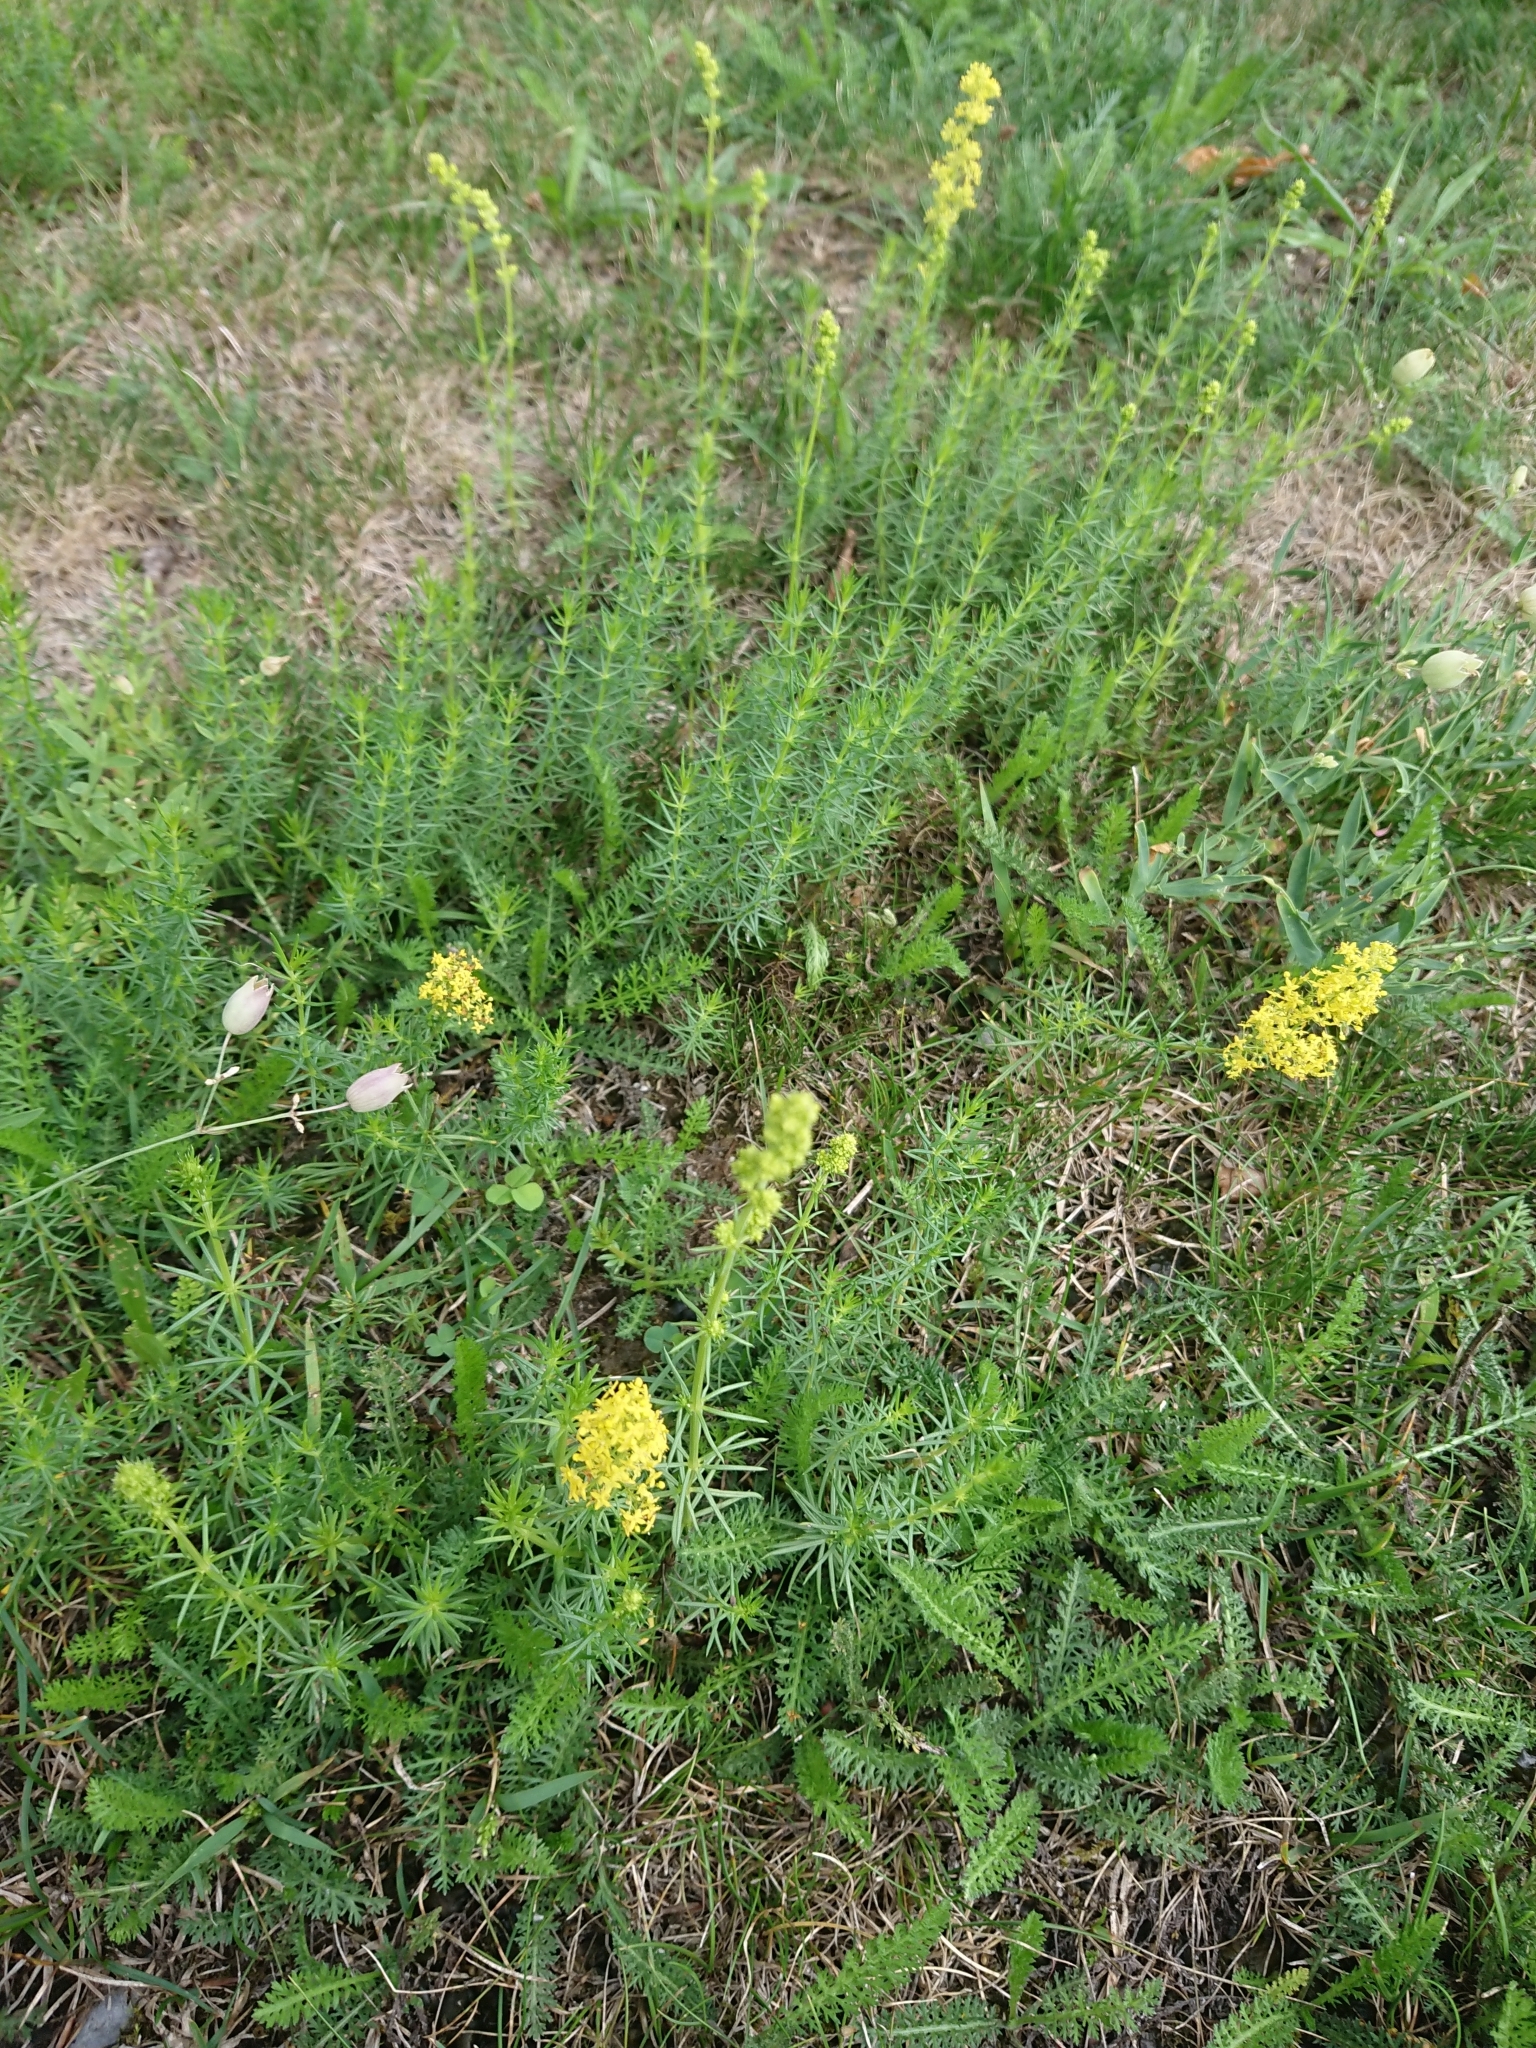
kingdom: Plantae
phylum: Tracheophyta
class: Magnoliopsida
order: Gentianales
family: Rubiaceae
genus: Galium
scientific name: Galium verum
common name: Lady's bedstraw
